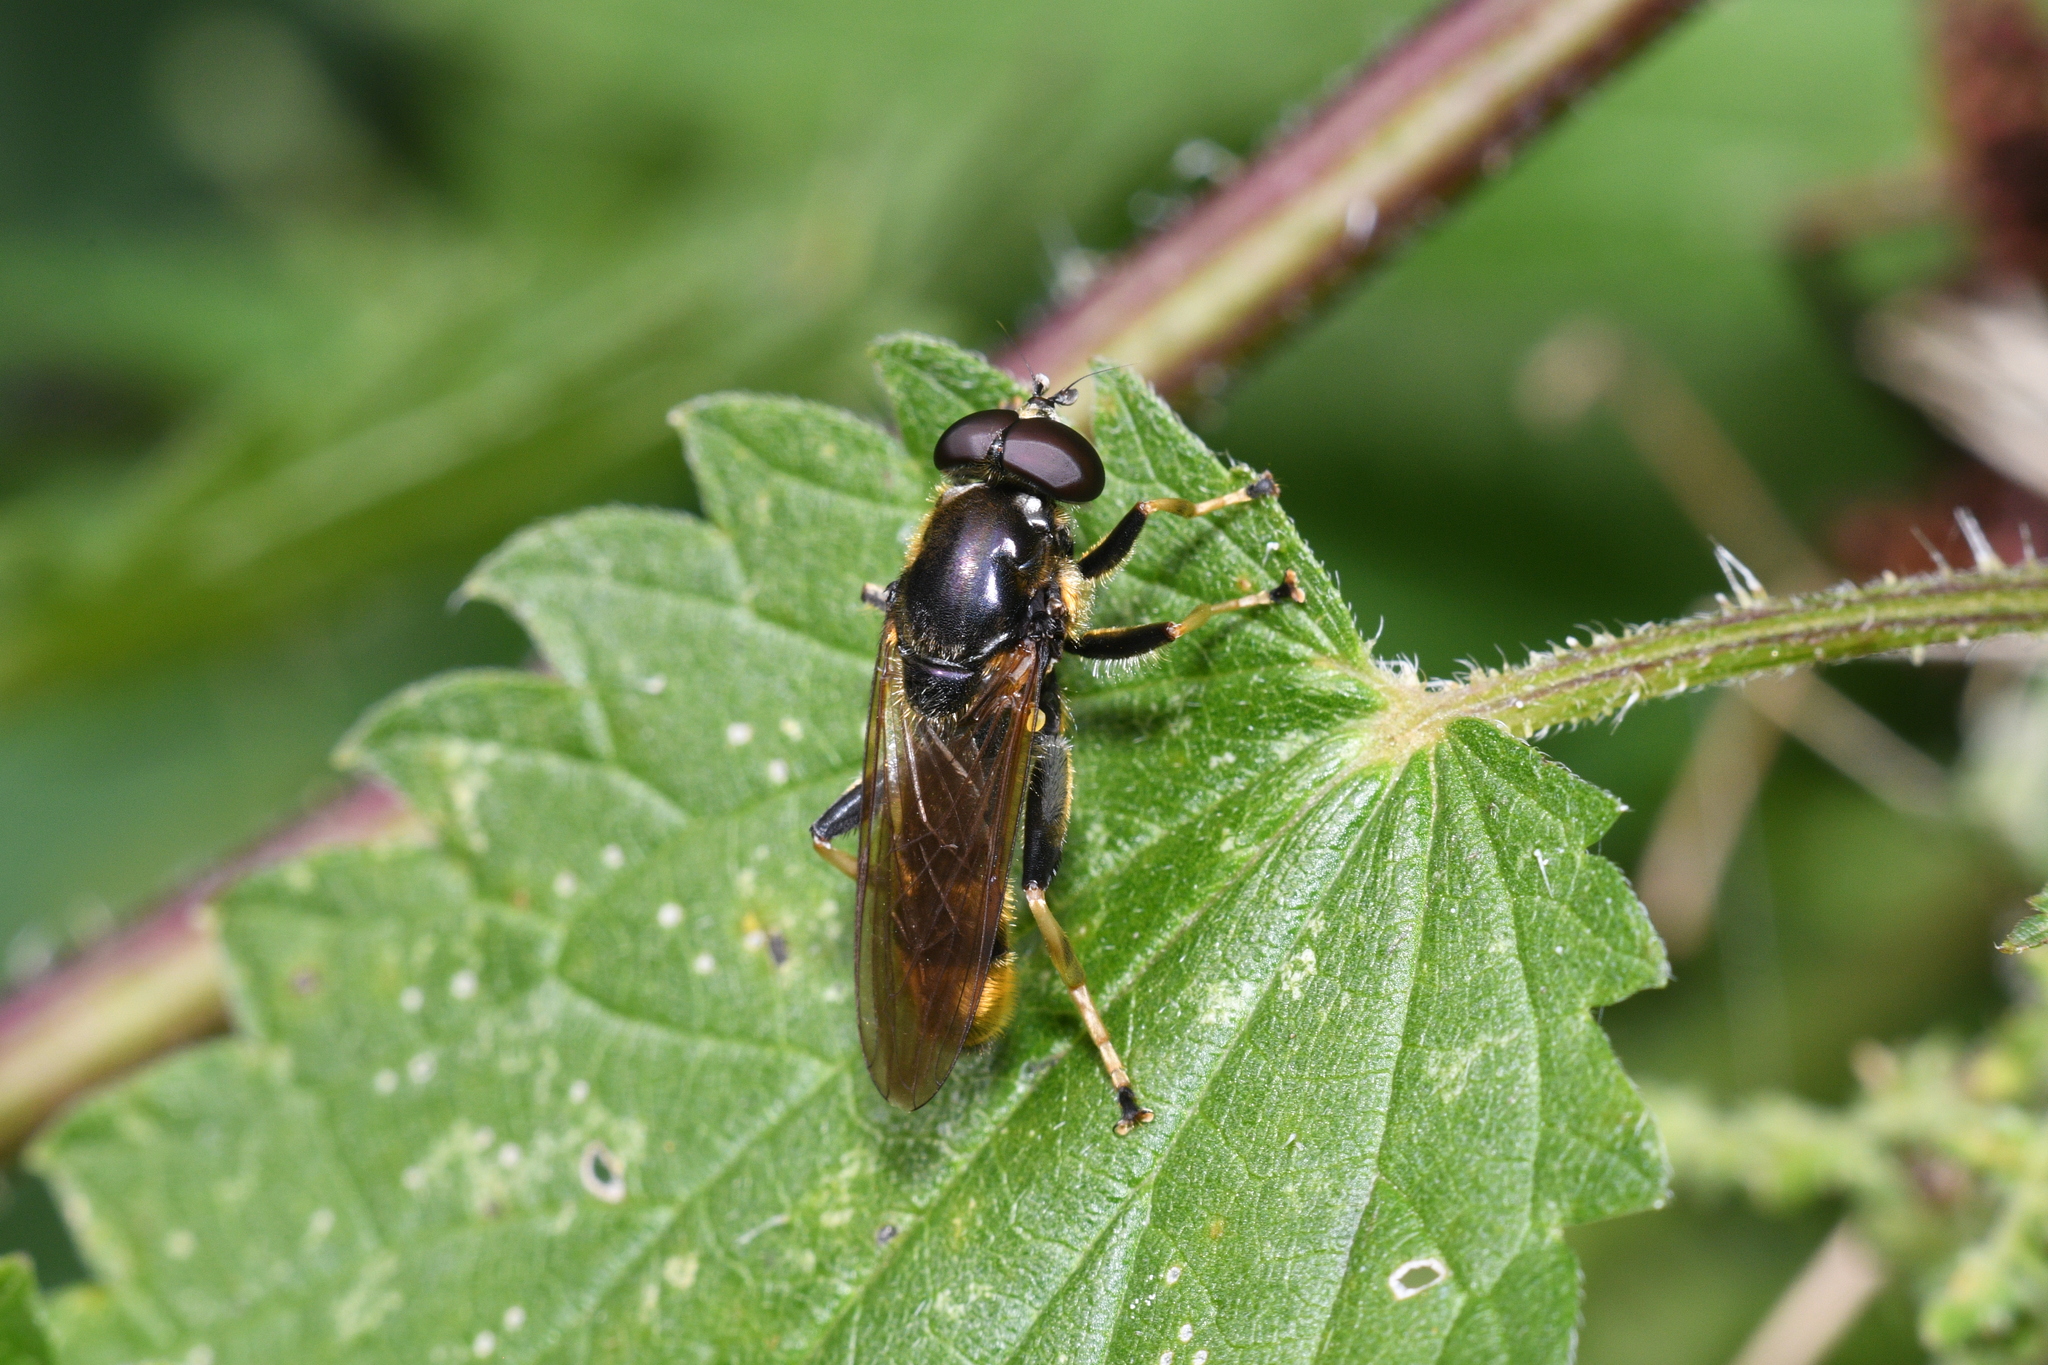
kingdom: Animalia
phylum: Arthropoda
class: Insecta
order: Diptera
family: Syrphidae
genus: Xylota
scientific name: Xylota sylvarum
